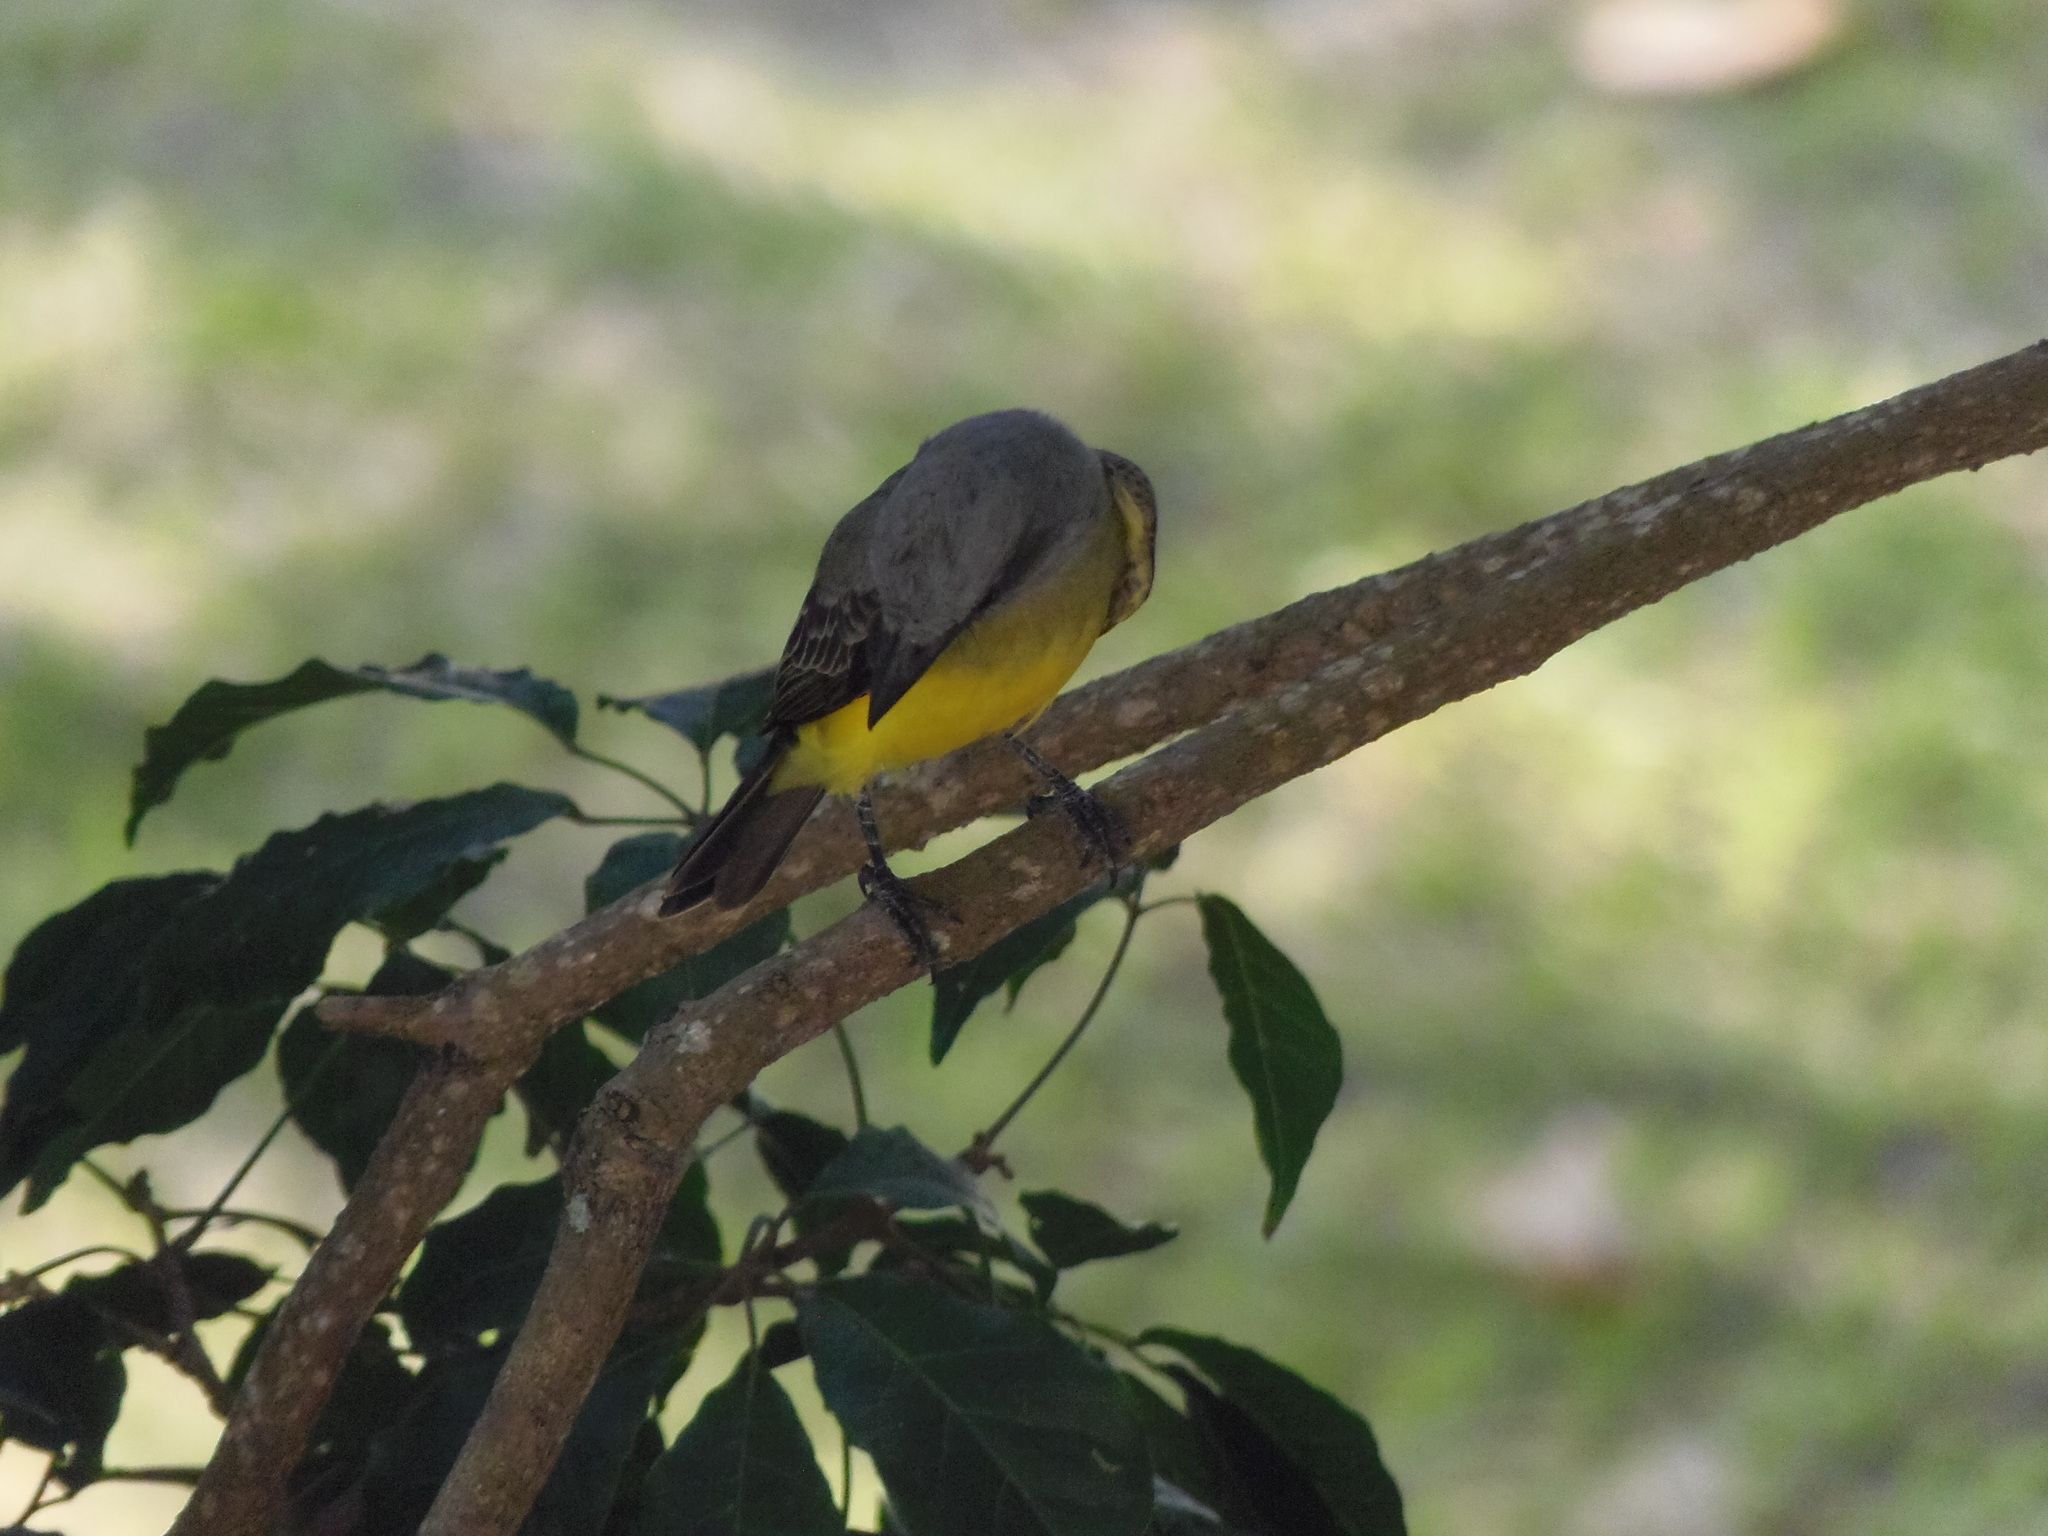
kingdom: Animalia
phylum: Chordata
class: Aves
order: Passeriformes
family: Tyrannidae
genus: Tyrannus
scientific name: Tyrannus melancholicus
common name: Tropical kingbird
